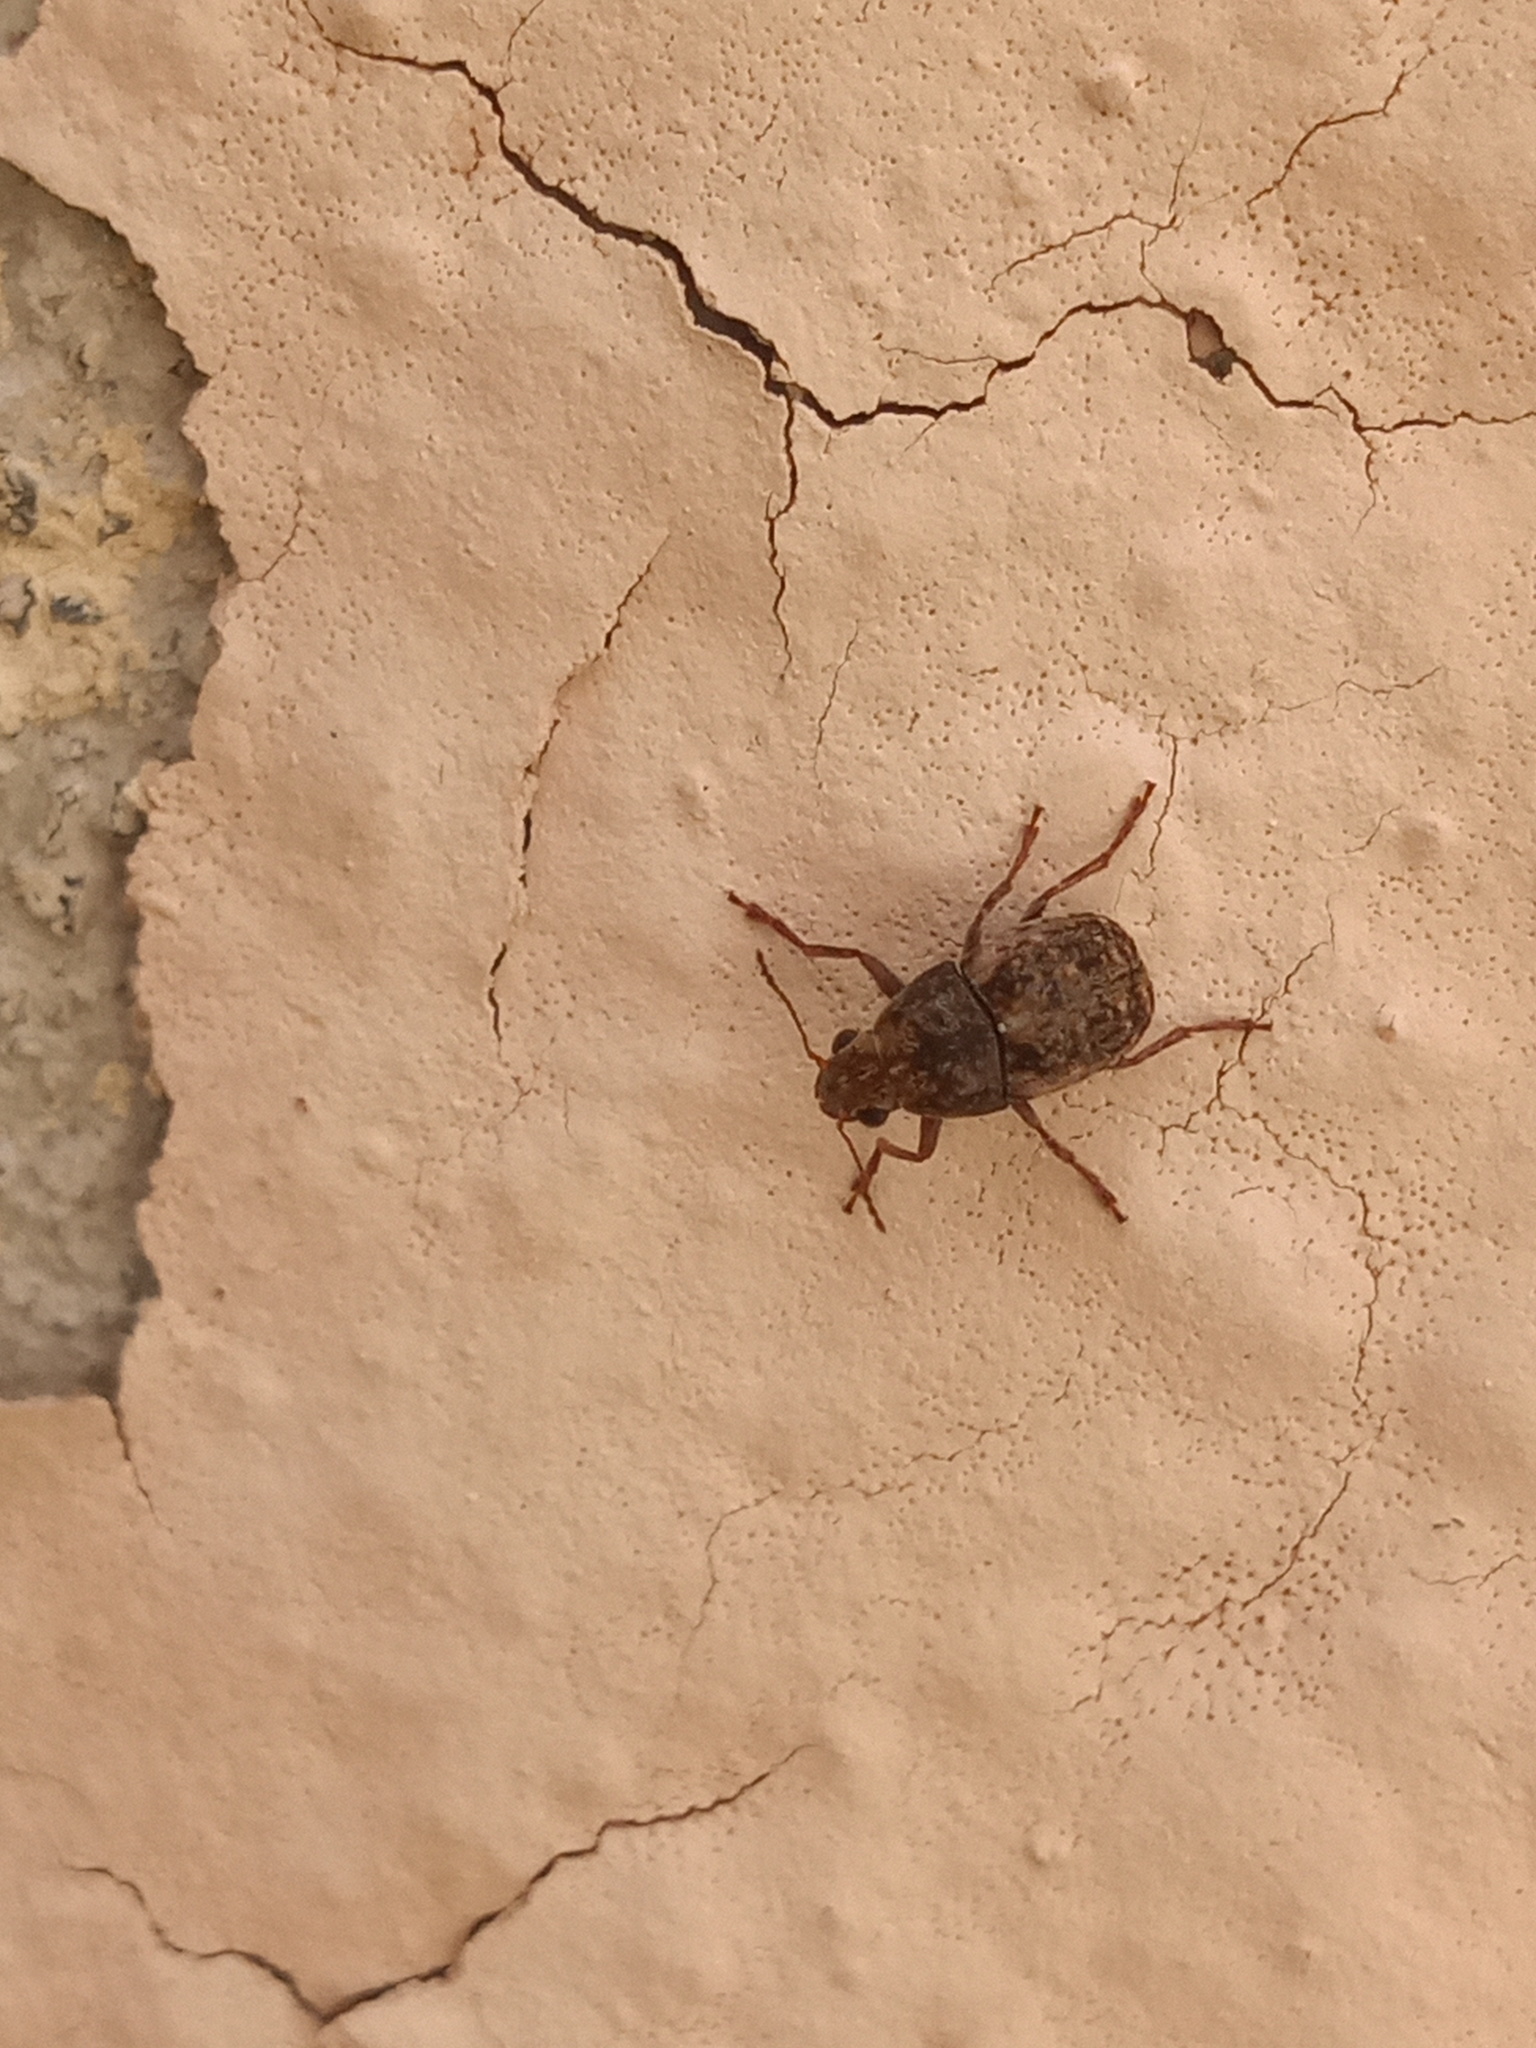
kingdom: Animalia
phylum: Arthropoda
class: Insecta
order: Coleoptera
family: Anthribidae
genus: Araecerus
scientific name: Araecerus fasciculatus
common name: Coffee bean weevil
